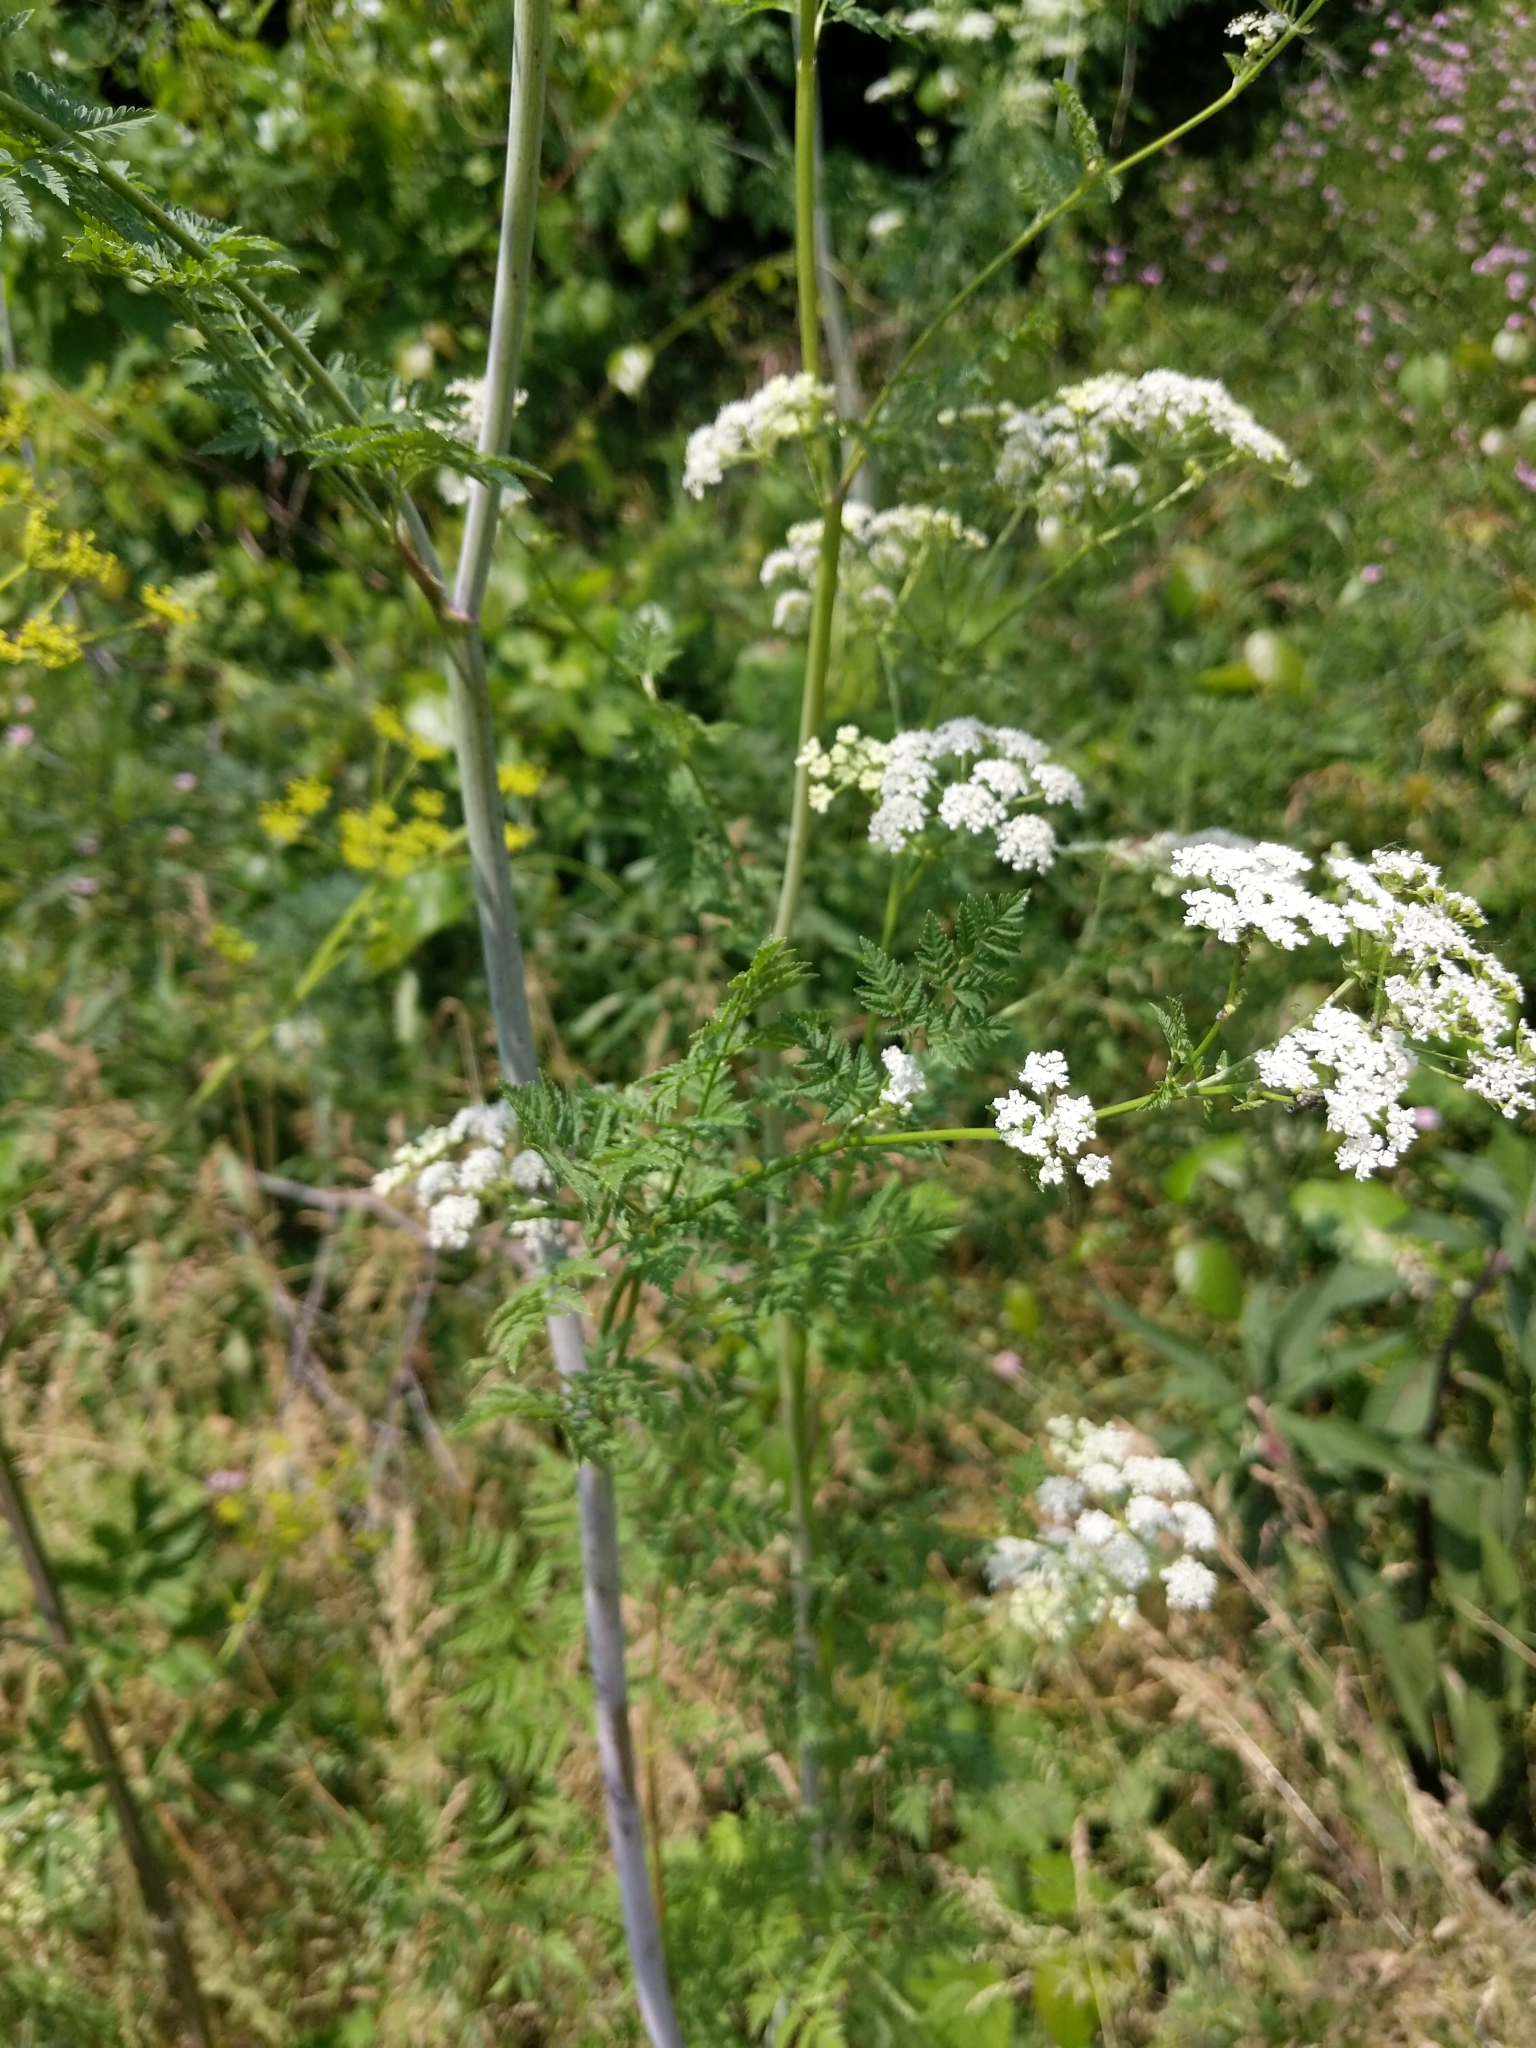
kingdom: Plantae
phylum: Tracheophyta
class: Magnoliopsida
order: Apiales
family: Apiaceae
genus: Conium
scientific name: Conium maculatum
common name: Hemlock
